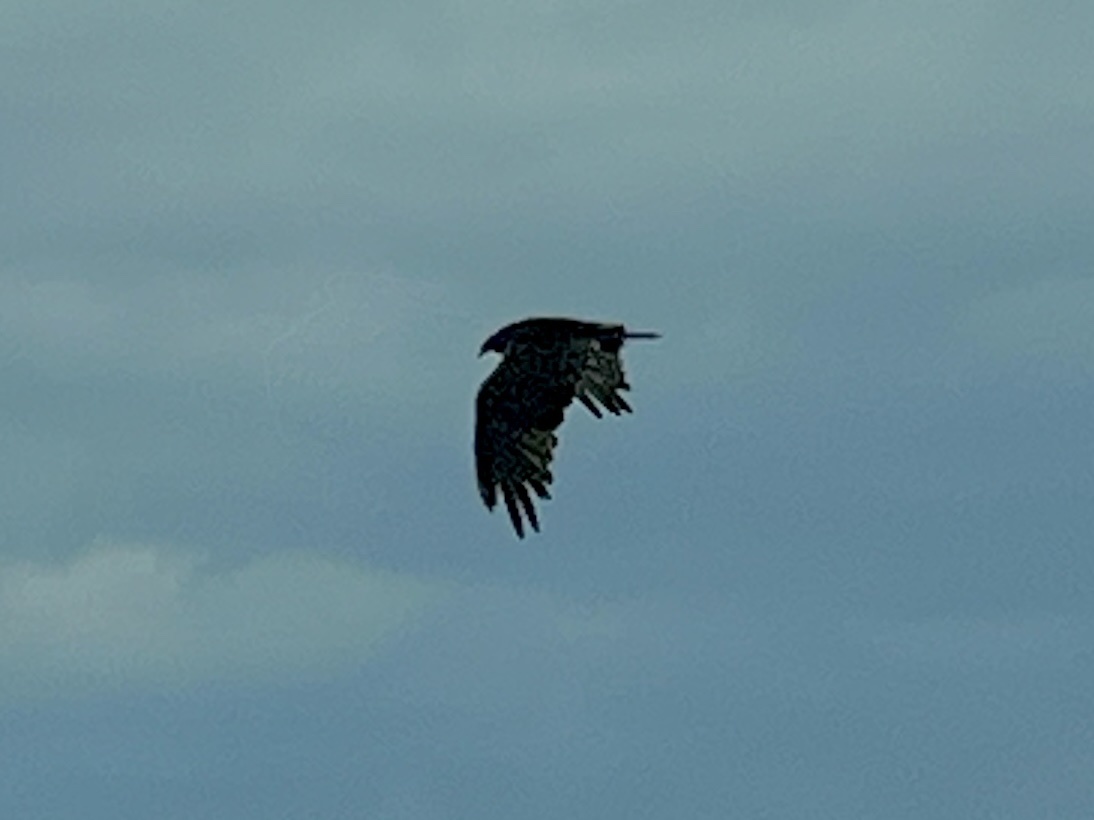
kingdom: Animalia
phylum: Chordata
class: Aves
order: Accipitriformes
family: Cathartidae
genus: Cathartes
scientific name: Cathartes aura
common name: Turkey vulture
